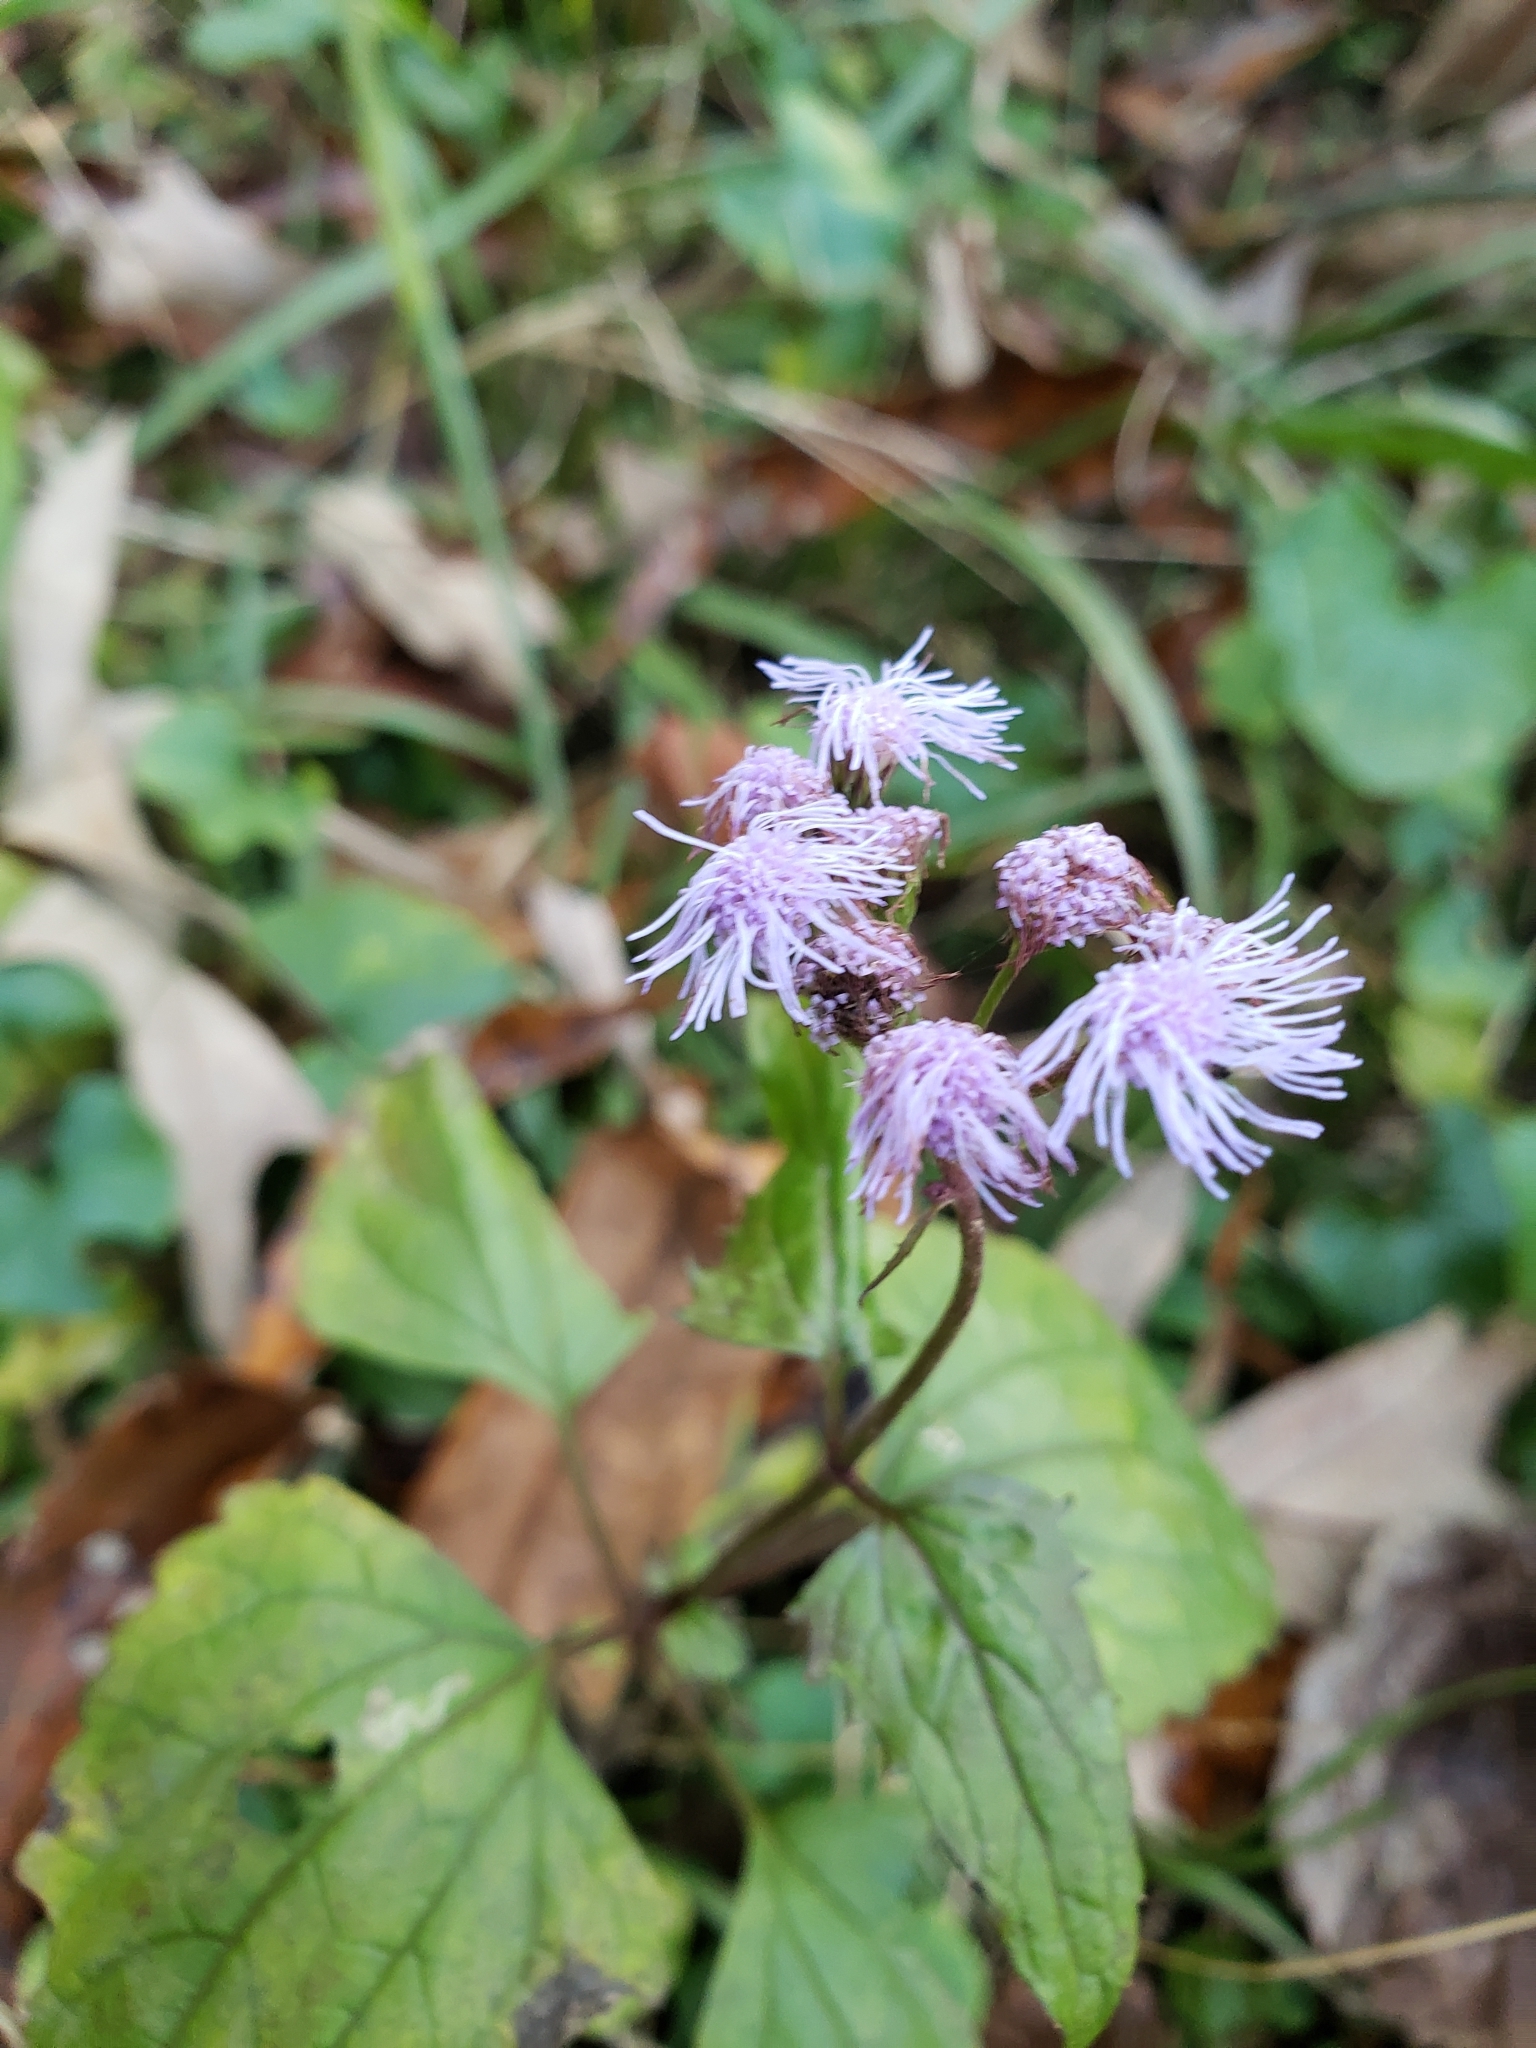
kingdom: Plantae
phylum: Tracheophyta
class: Magnoliopsida
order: Asterales
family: Asteraceae
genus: Conoclinium
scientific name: Conoclinium coelestinum
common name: Blue mistflower
